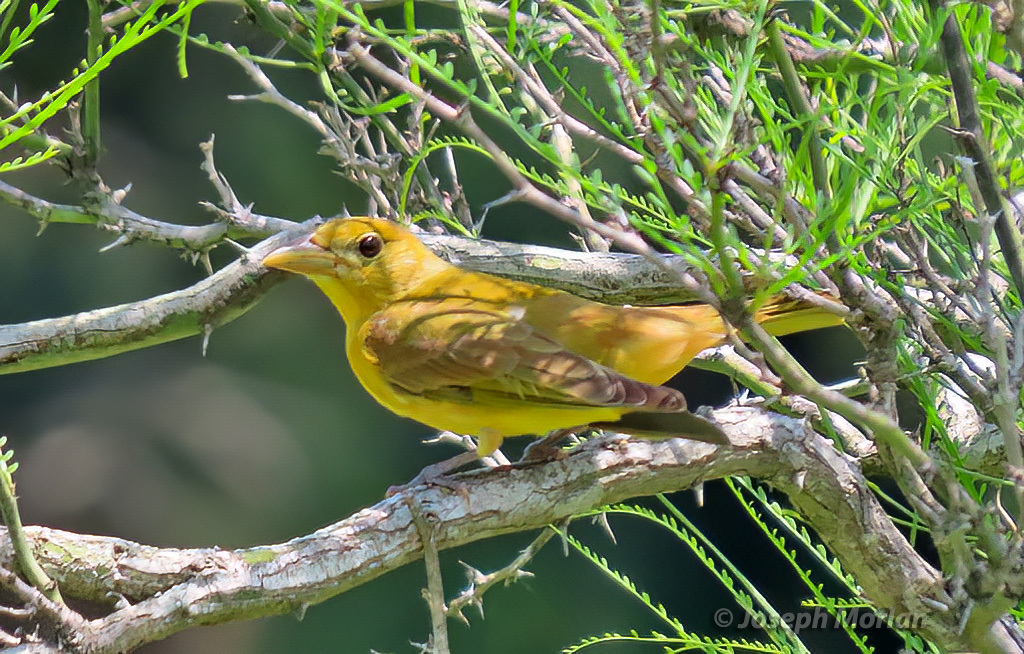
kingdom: Animalia
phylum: Chordata
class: Aves
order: Passeriformes
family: Cardinalidae
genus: Piranga
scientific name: Piranga rubra
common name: Summer tanager
